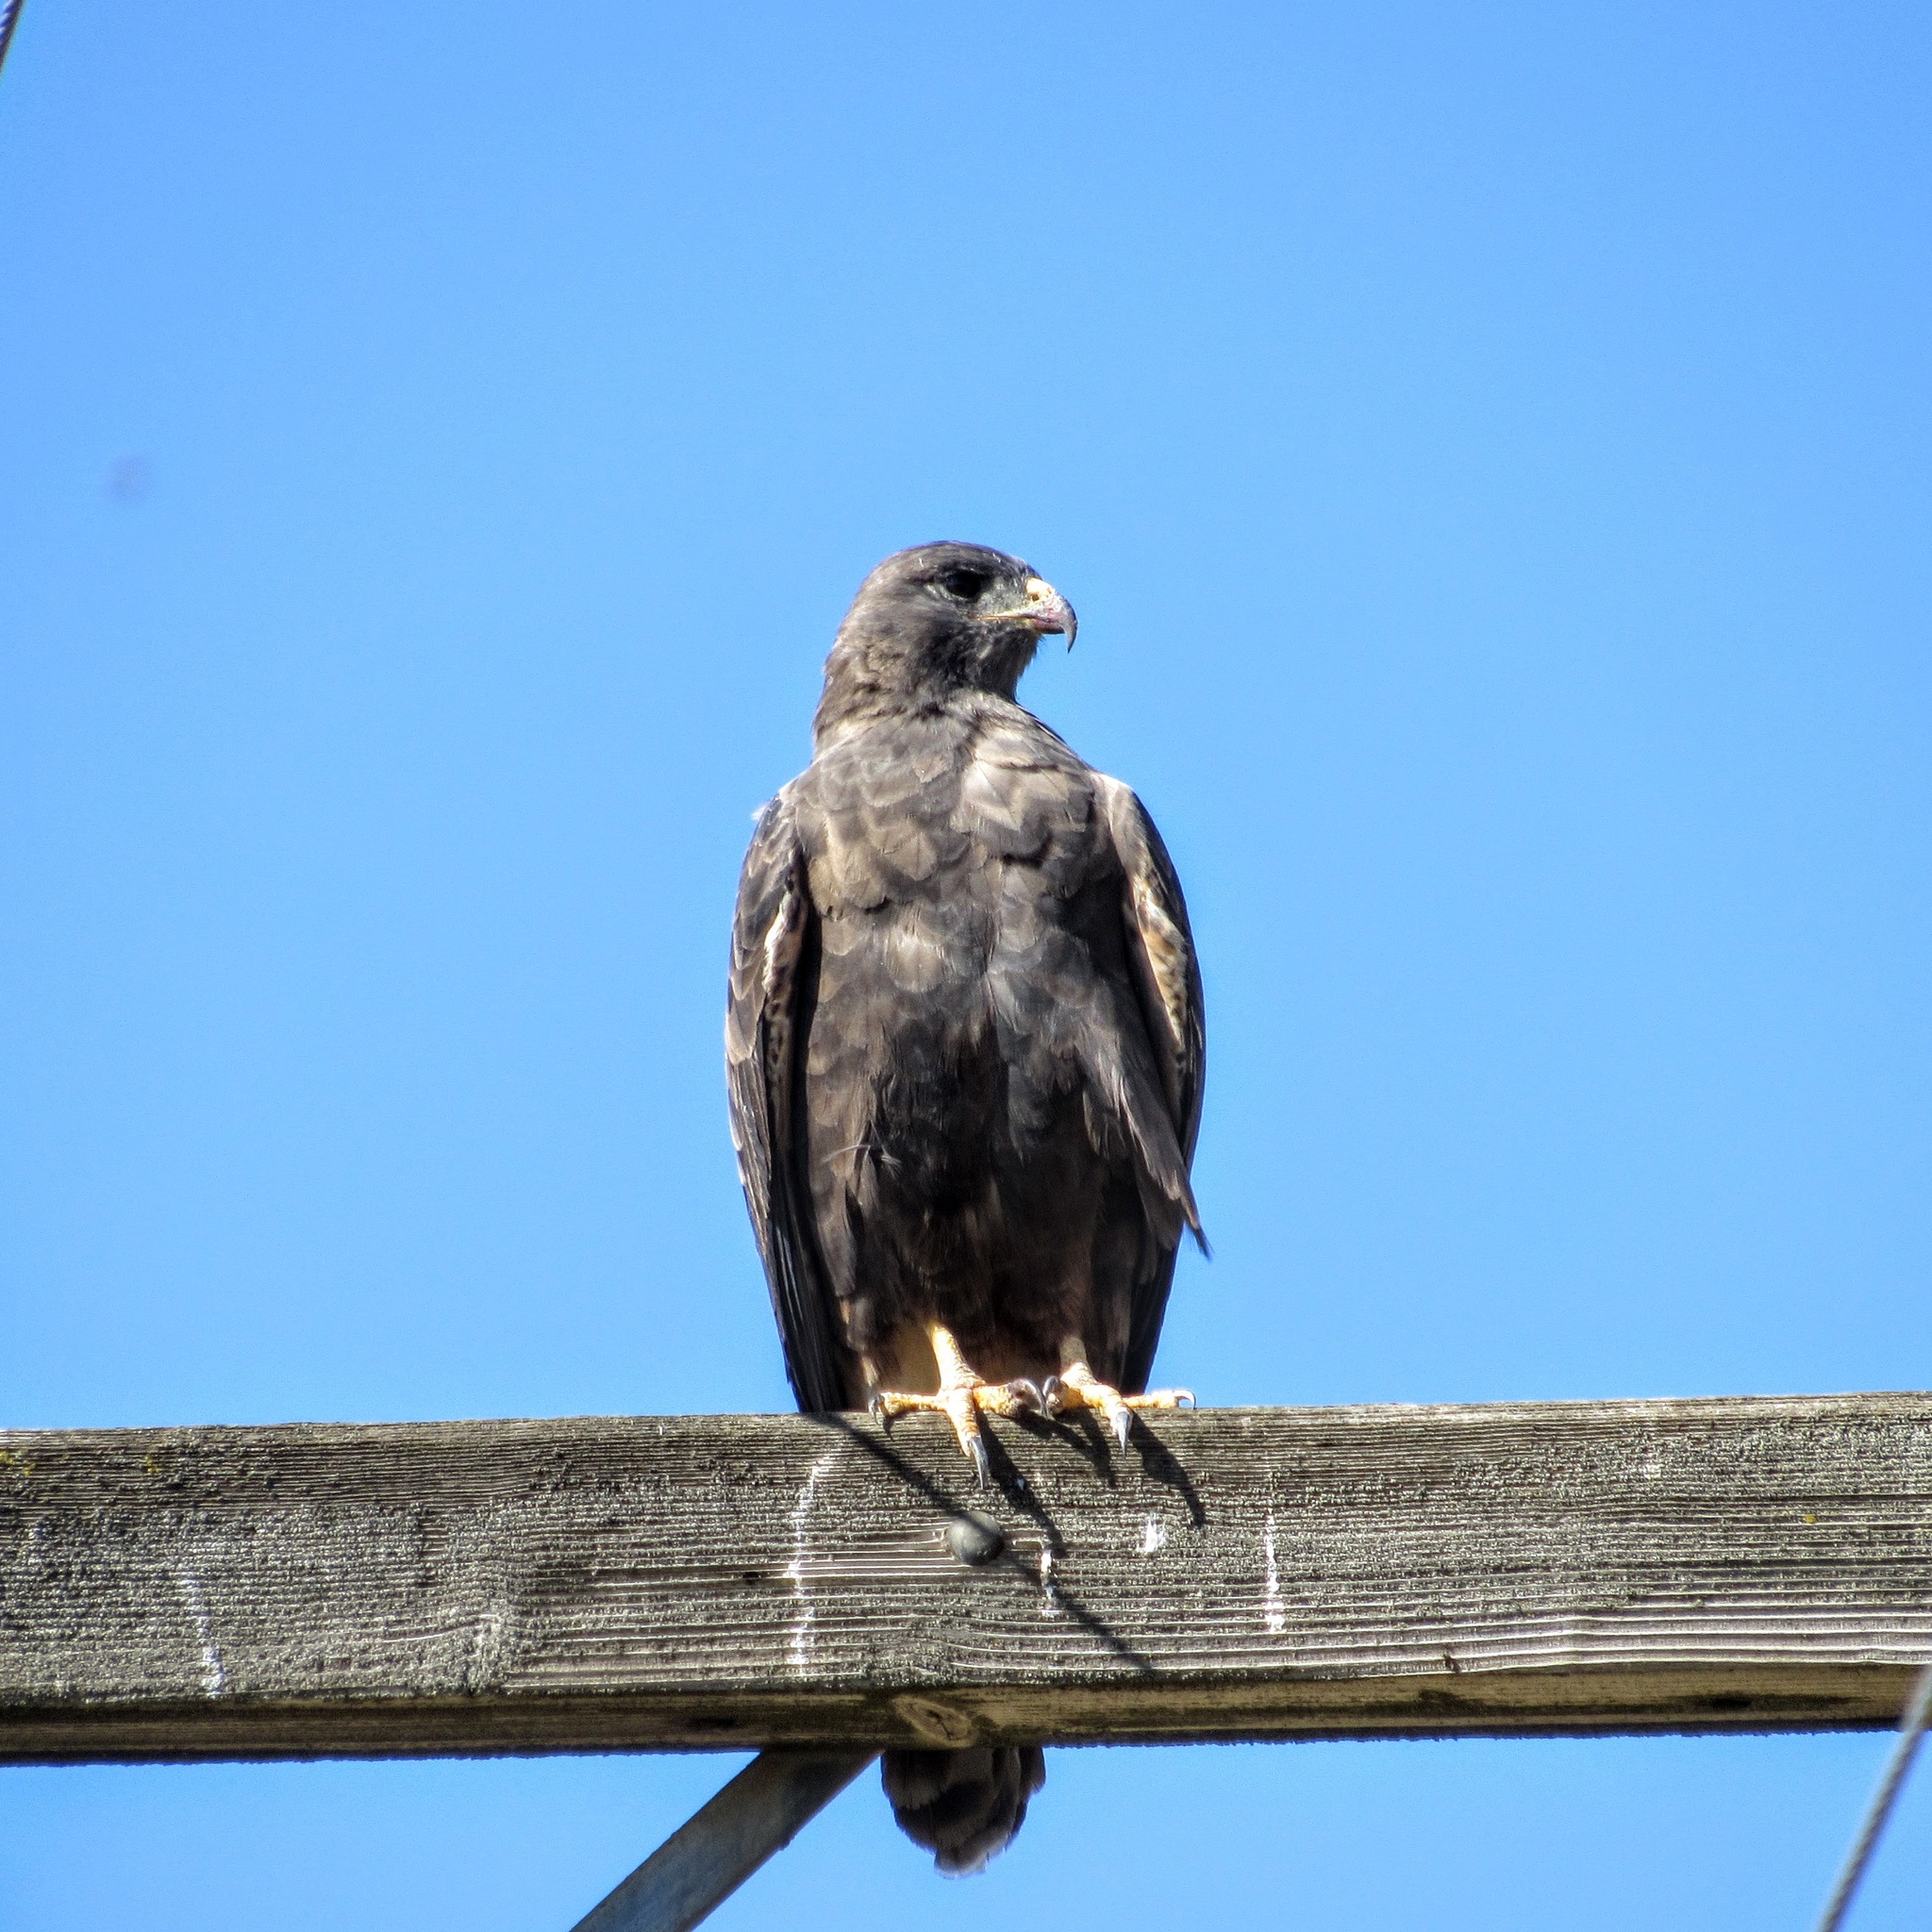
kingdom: Animalia
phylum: Chordata
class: Aves
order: Accipitriformes
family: Accipitridae
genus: Buteo
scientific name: Buteo swainsoni
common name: Swainson's hawk
